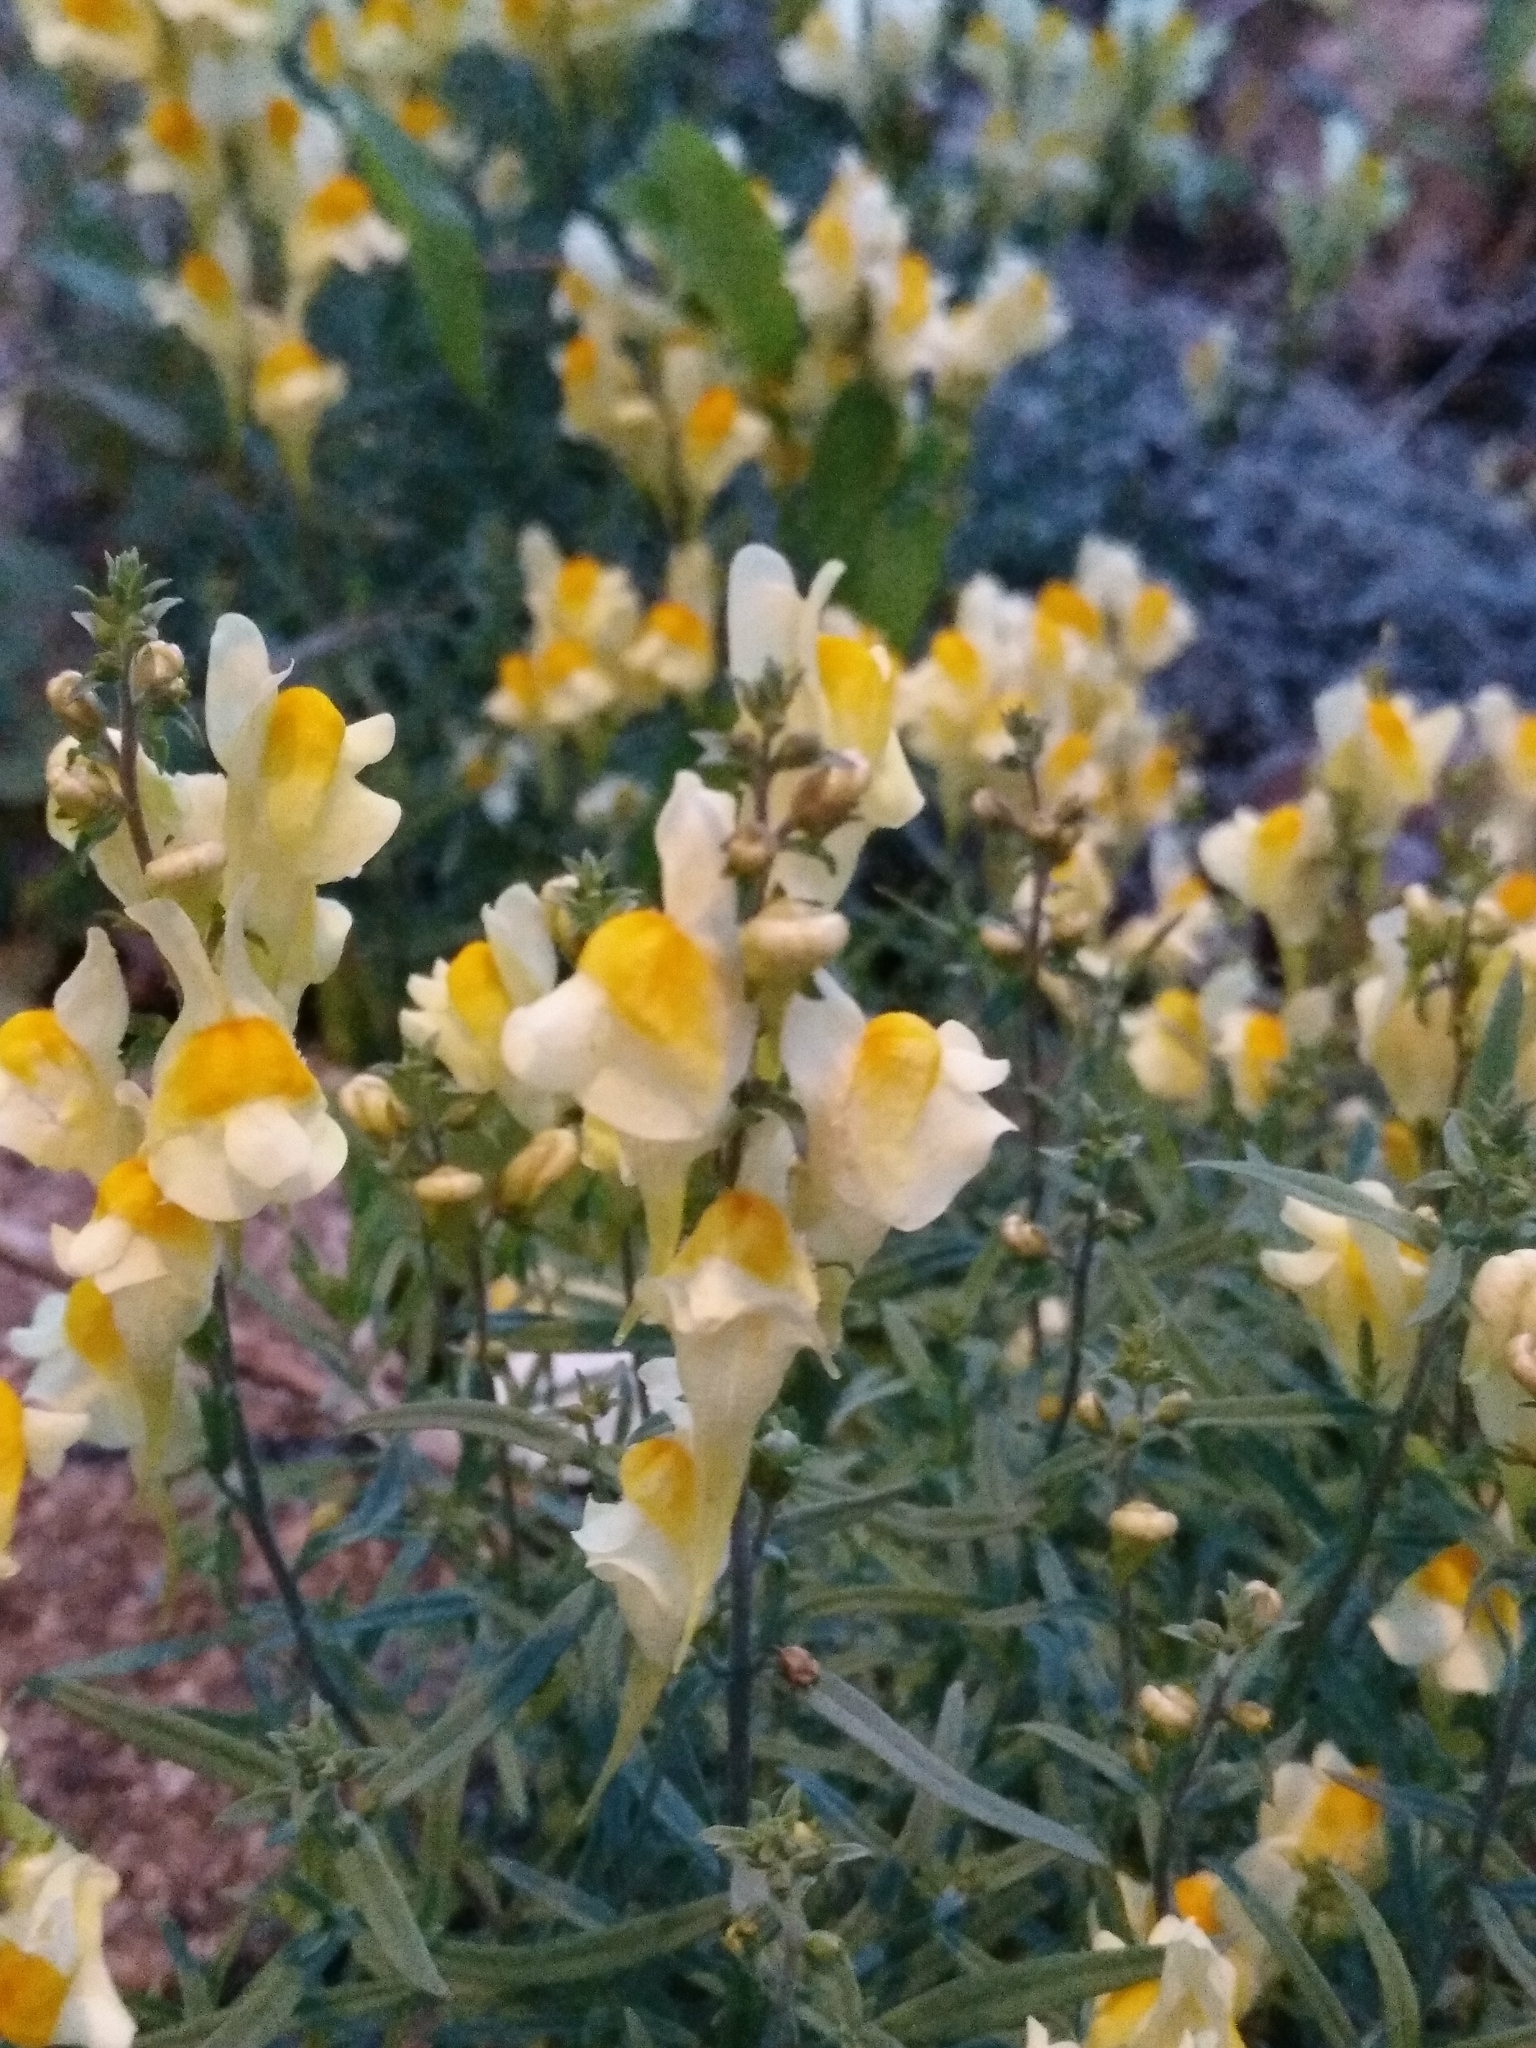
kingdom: Plantae
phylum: Tracheophyta
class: Magnoliopsida
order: Lamiales
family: Plantaginaceae
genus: Linaria
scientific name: Linaria vulgaris
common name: Butter and eggs
